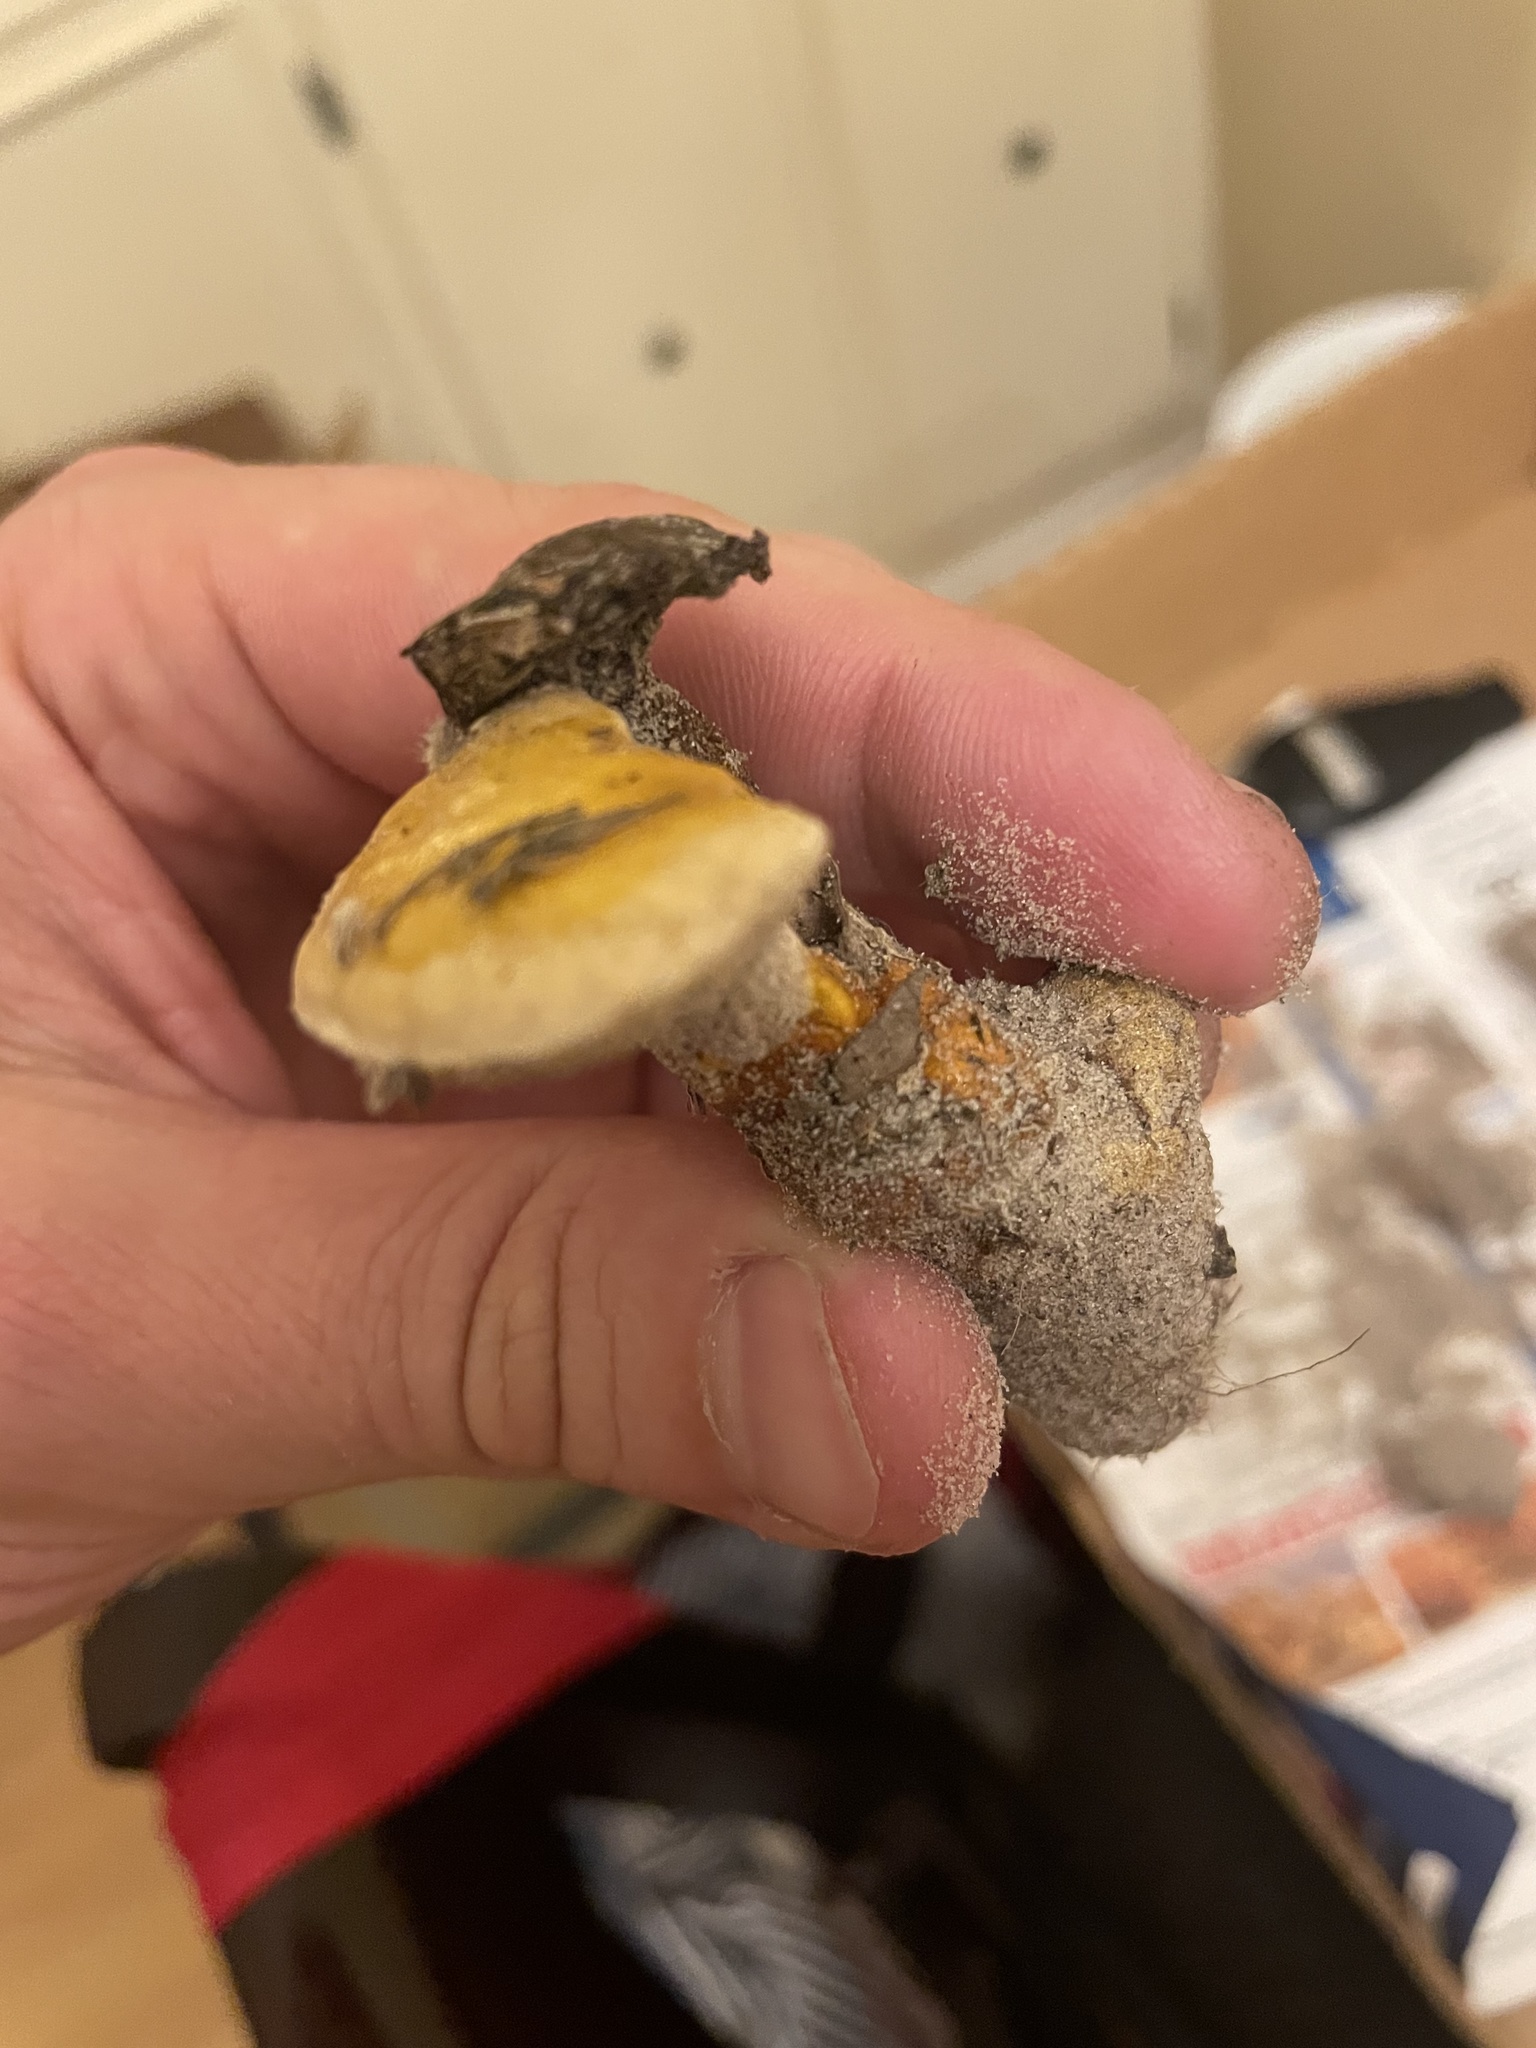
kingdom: Fungi
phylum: Basidiomycota
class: Agaricomycetes
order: Polyporales
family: Polyporaceae
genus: Ganoderma
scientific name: Ganoderma curtisii
